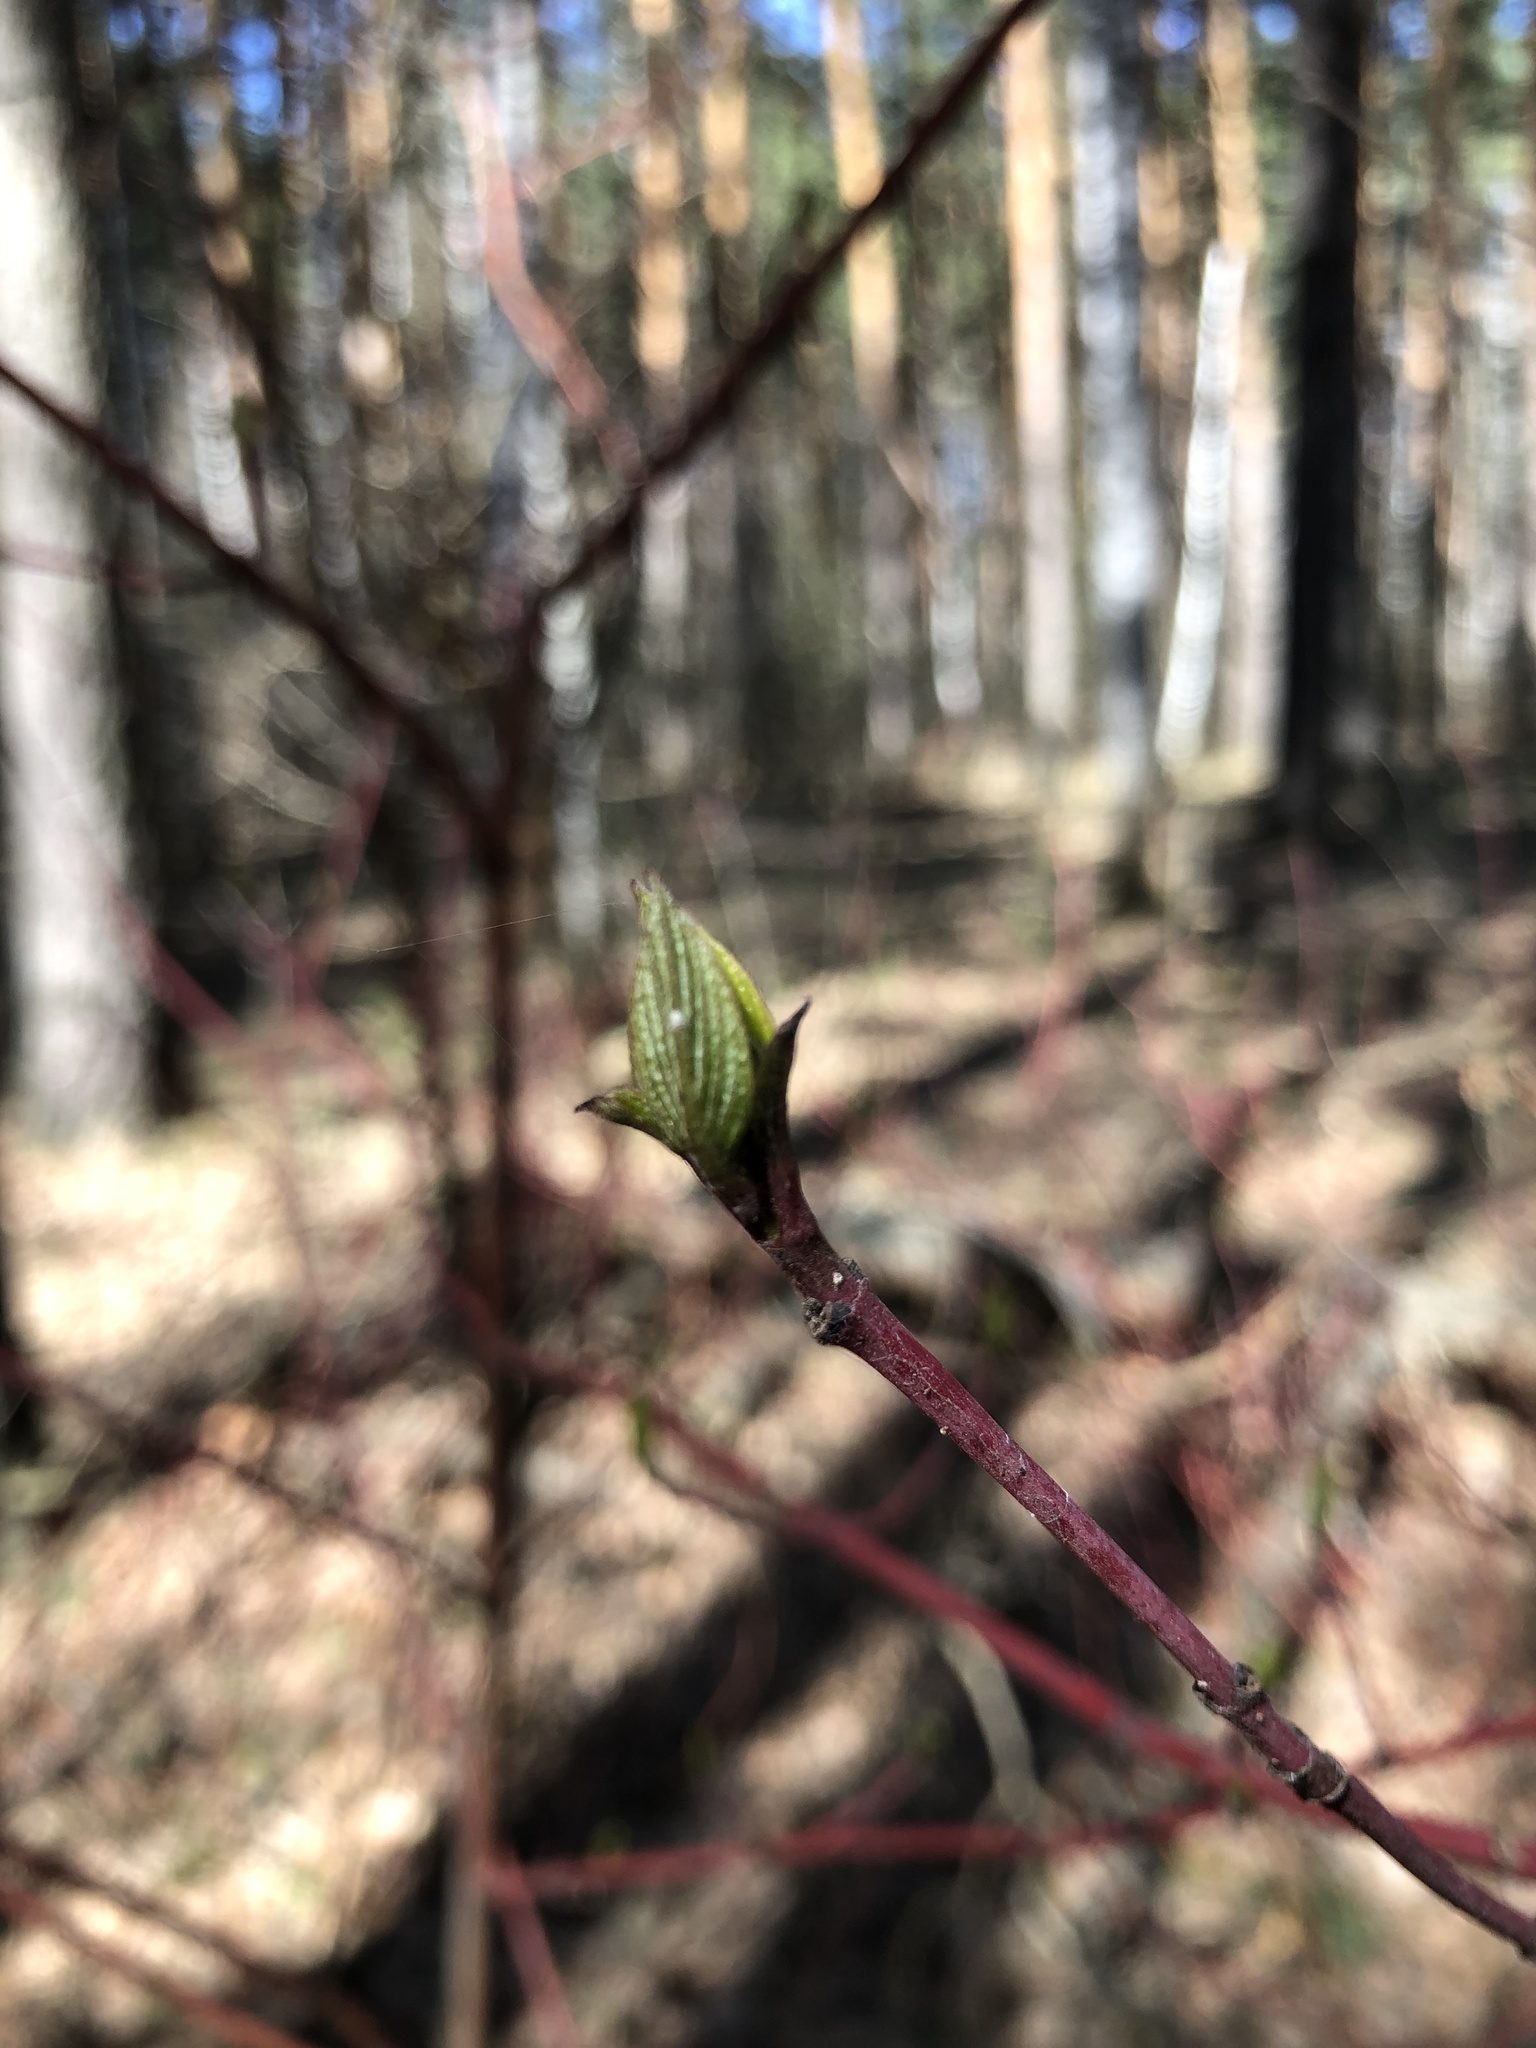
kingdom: Plantae
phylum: Tracheophyta
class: Magnoliopsida
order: Cornales
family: Cornaceae
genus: Cornus
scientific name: Cornus alba
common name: White dogwood
